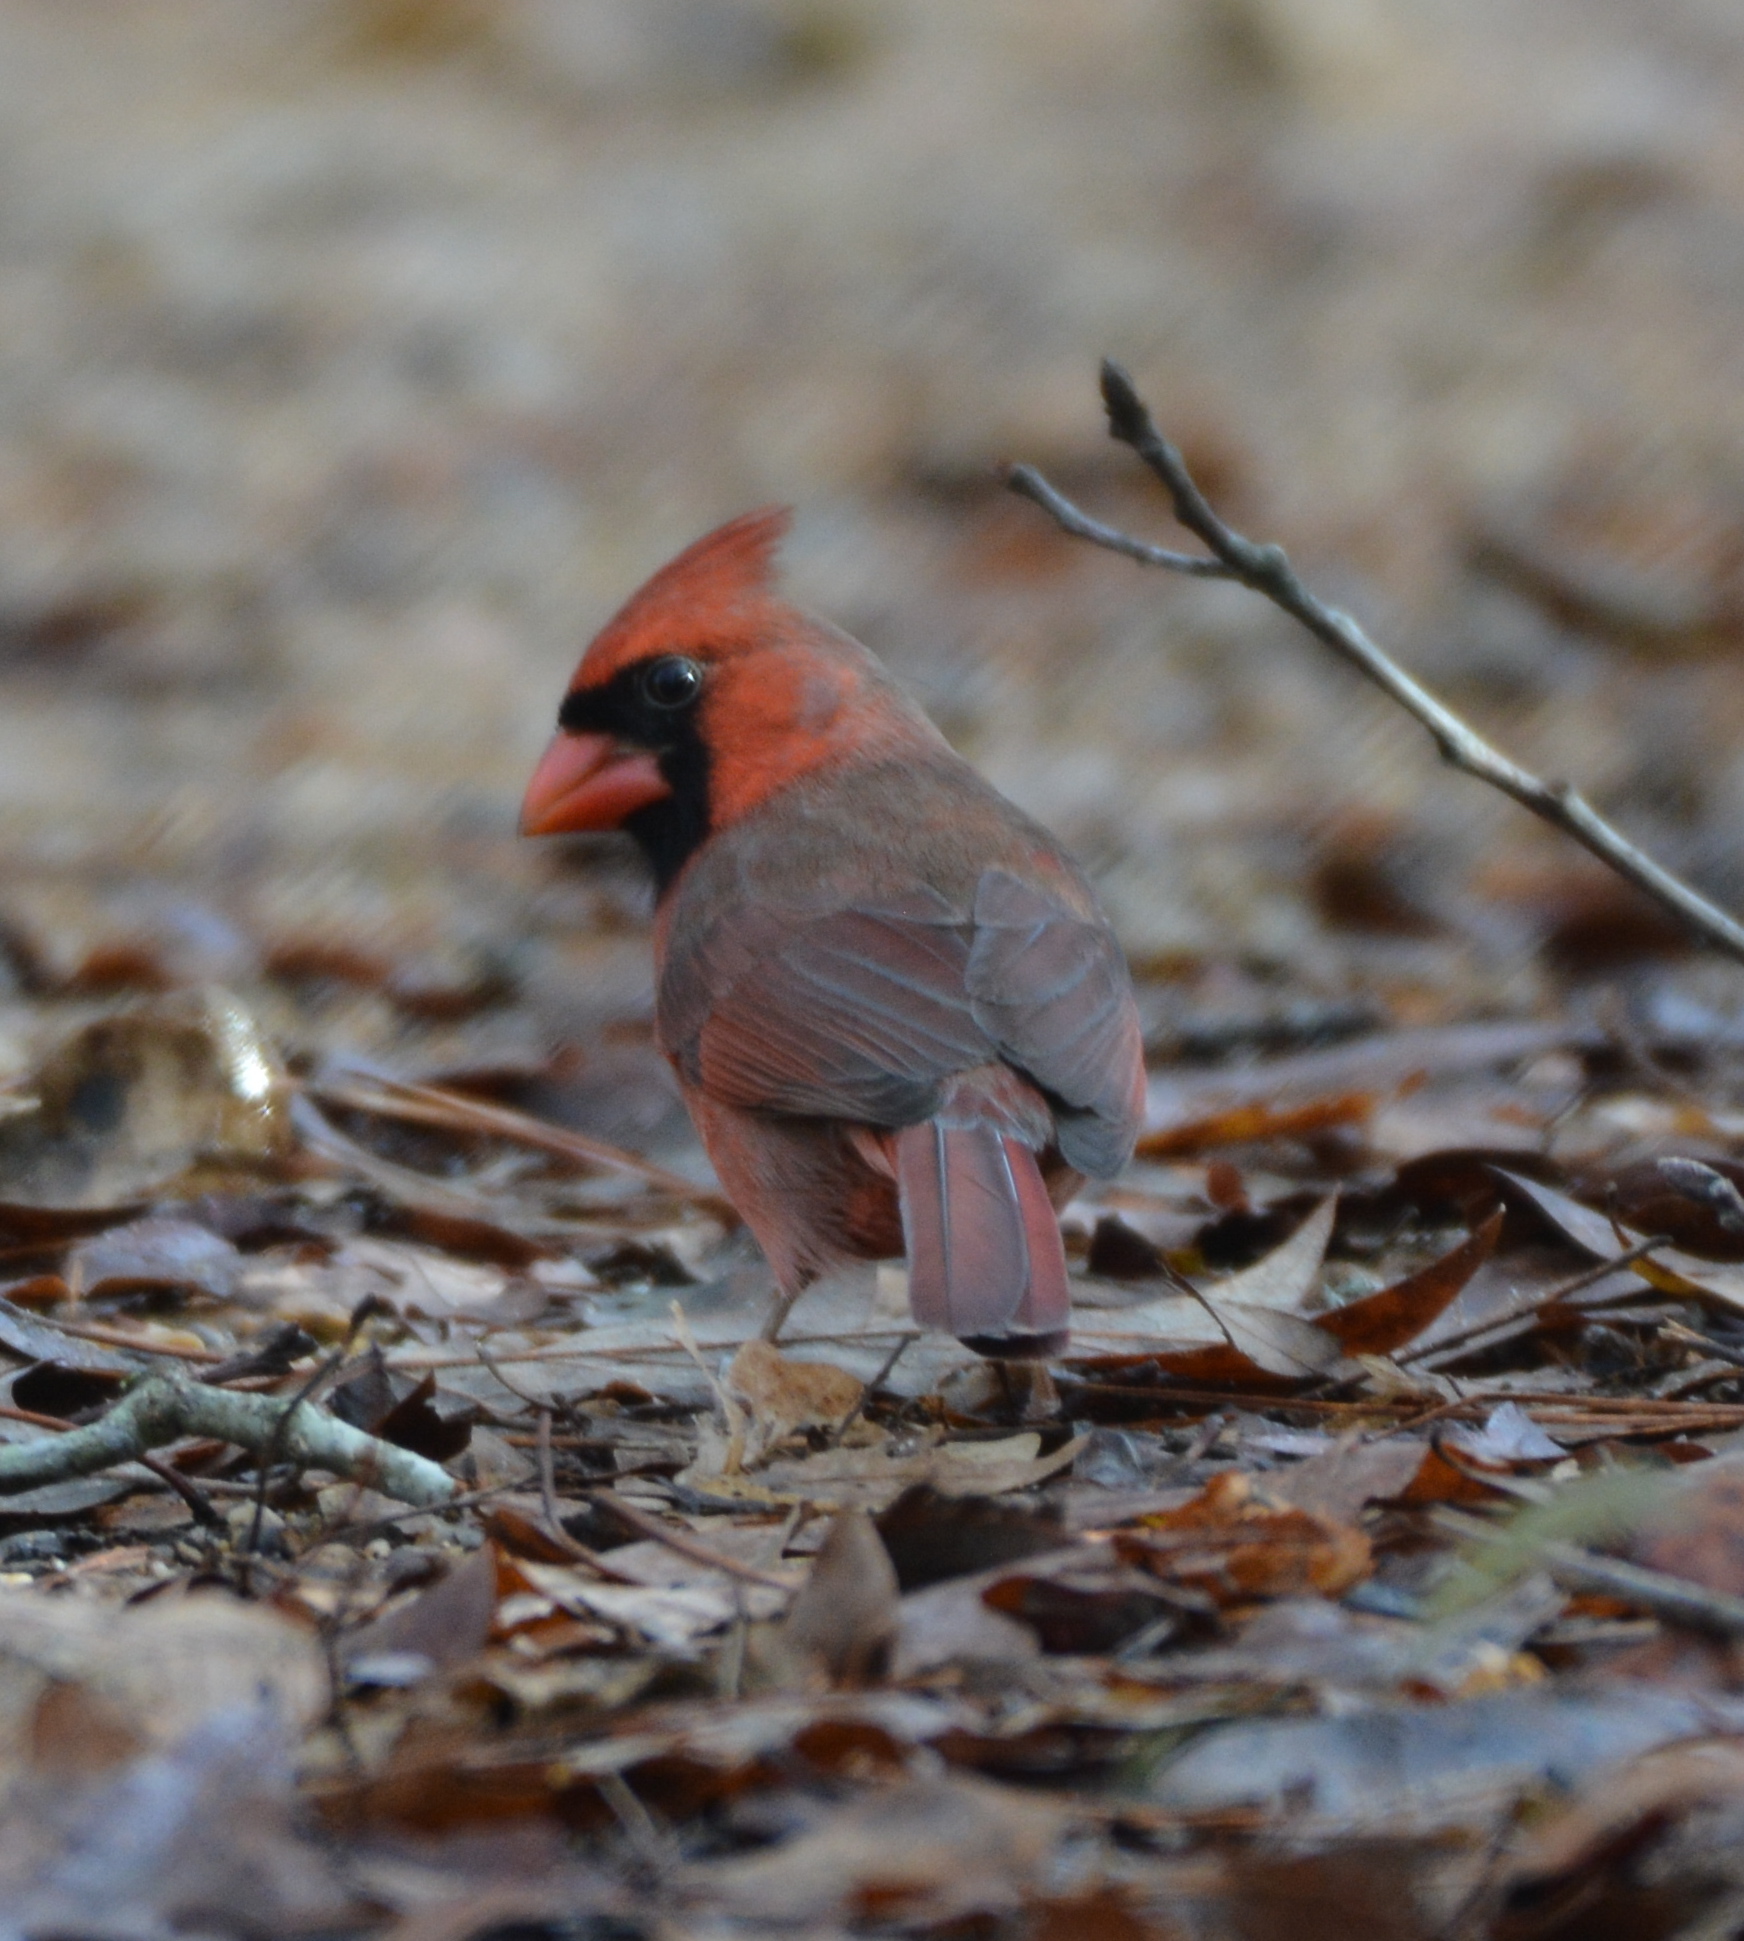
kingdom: Animalia
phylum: Chordata
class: Aves
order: Passeriformes
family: Cardinalidae
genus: Cardinalis
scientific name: Cardinalis cardinalis
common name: Northern cardinal
